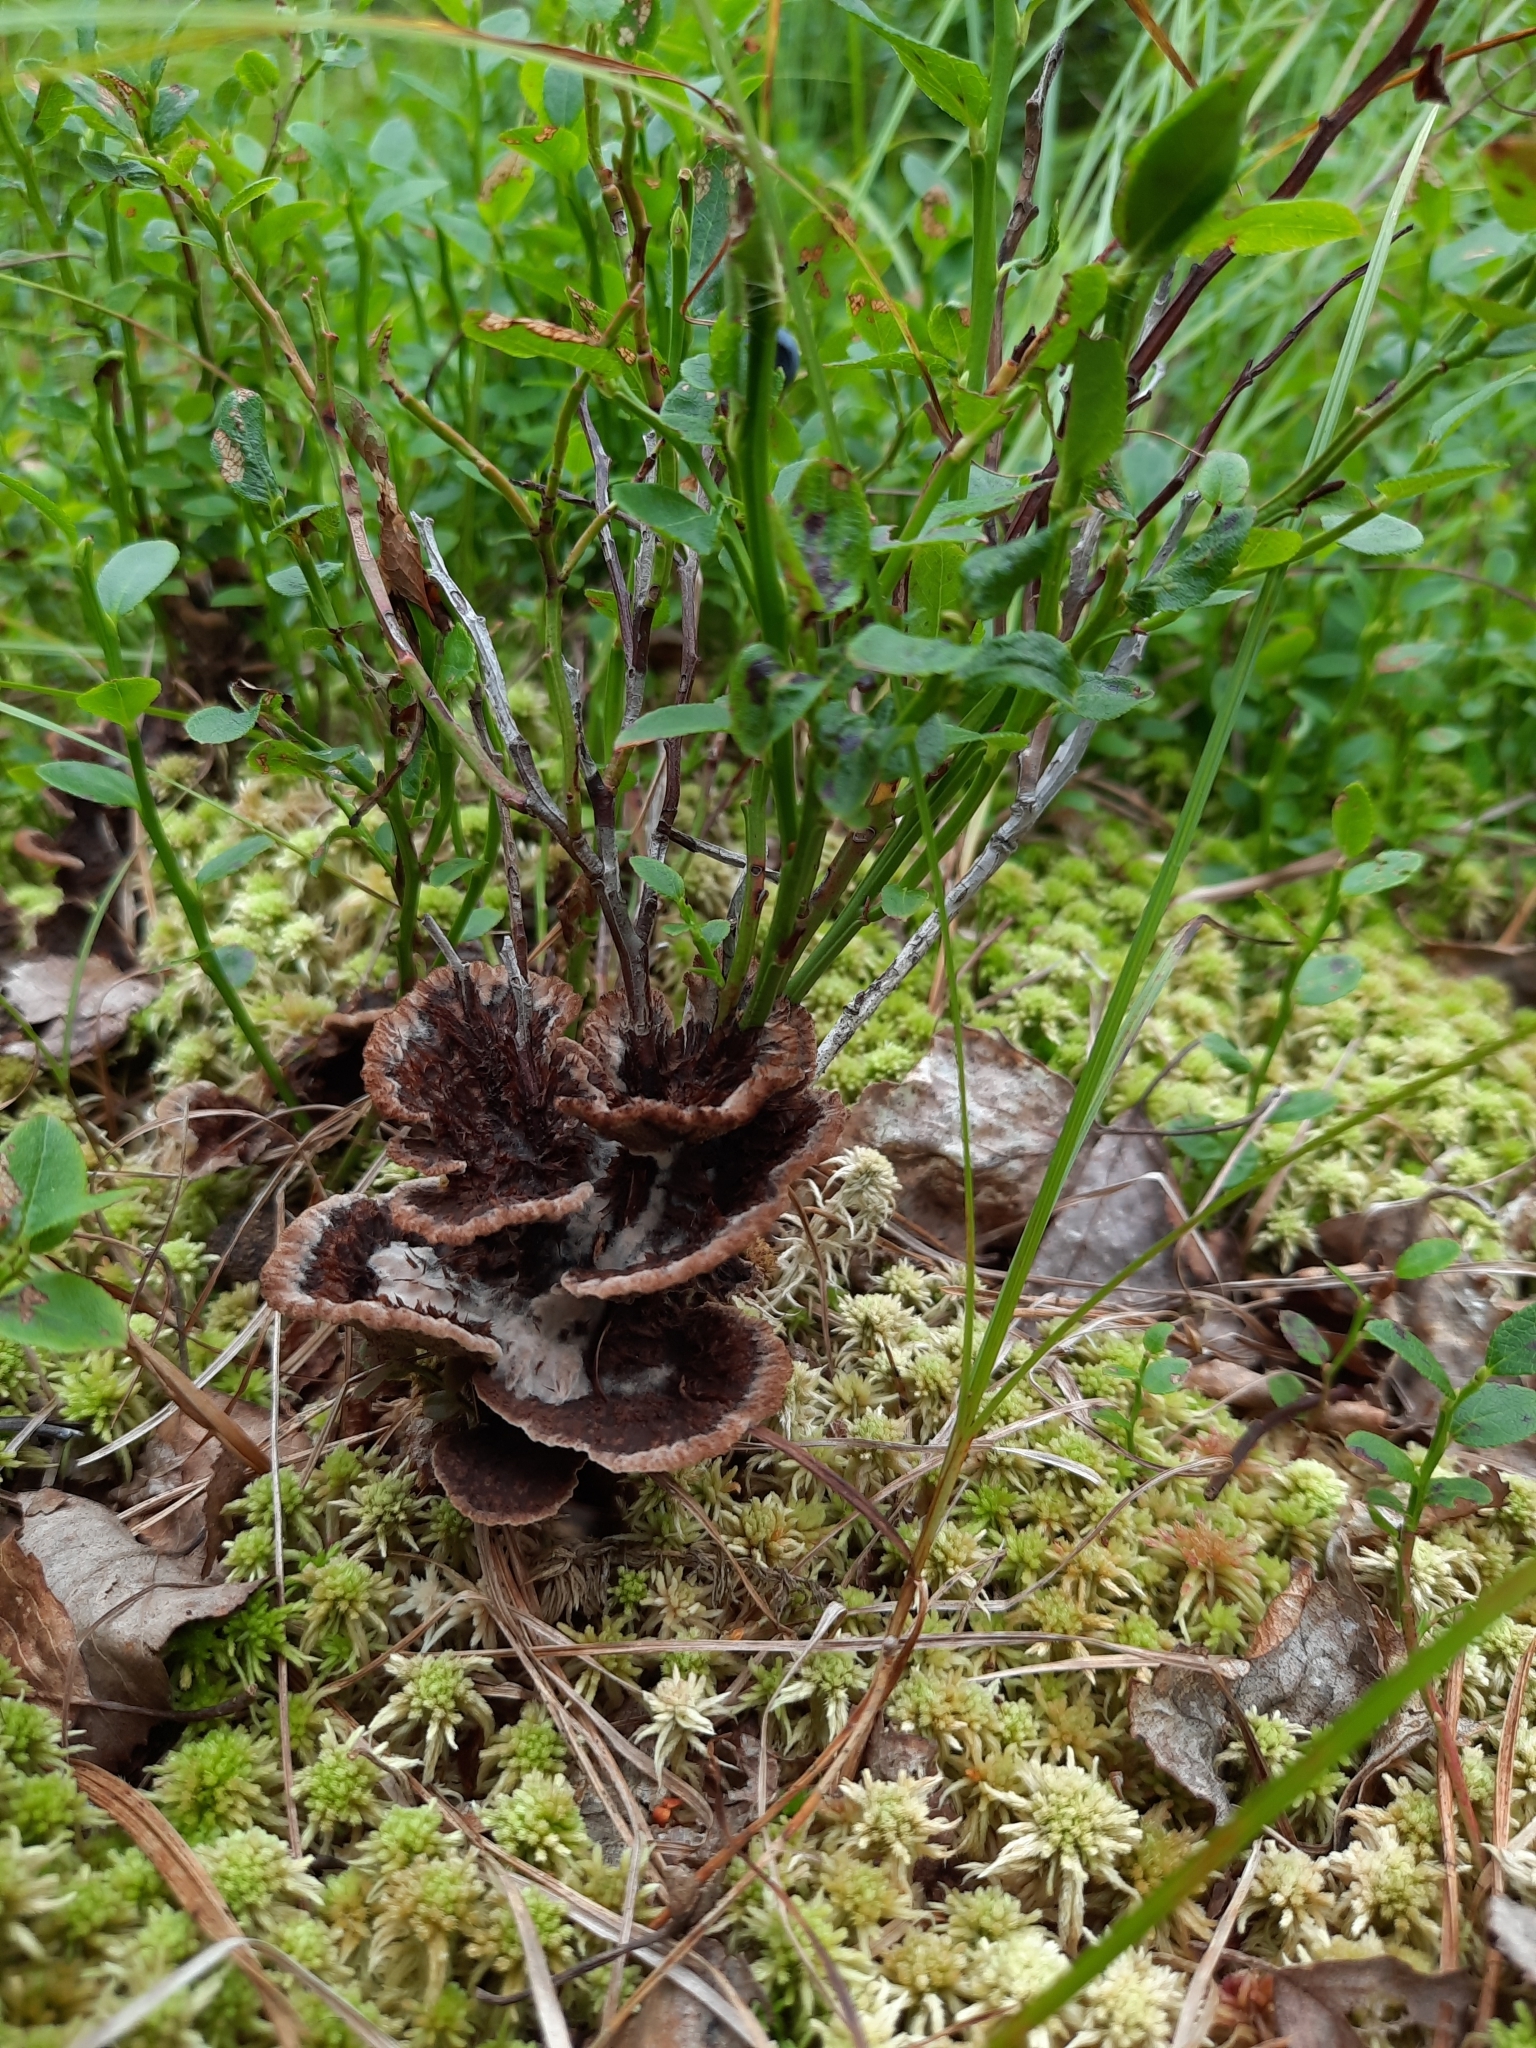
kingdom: Fungi
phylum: Basidiomycota
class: Agaricomycetes
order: Thelephorales
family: Thelephoraceae
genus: Thelephora
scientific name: Thelephora terrestris
